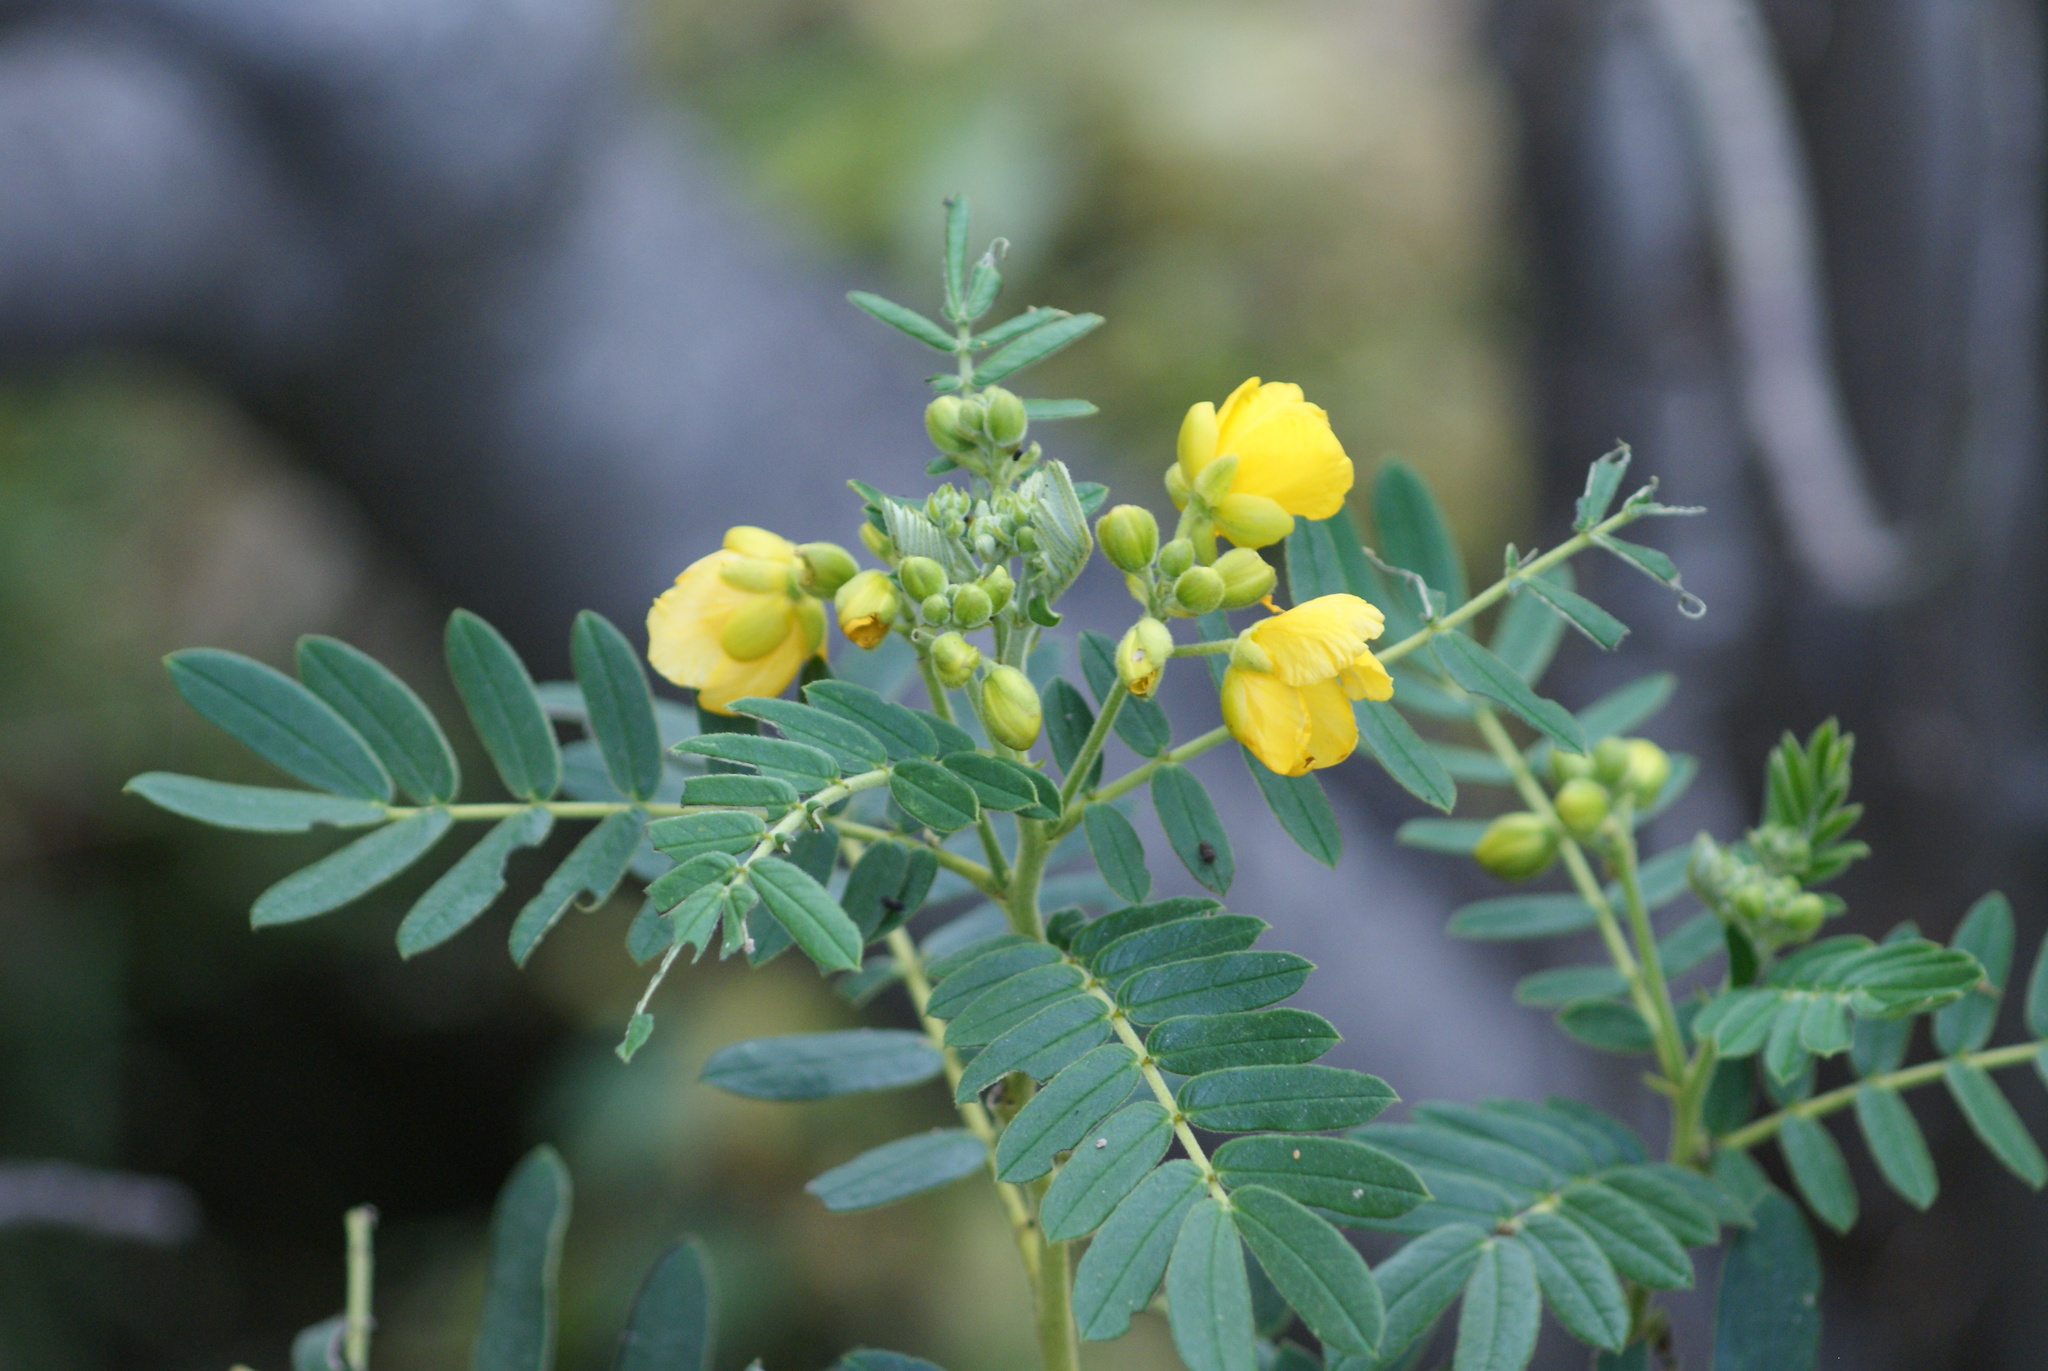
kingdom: Plantae
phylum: Tracheophyta
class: Magnoliopsida
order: Fabales
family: Fabaceae
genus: Senna
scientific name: Senna multiglandulosa
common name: Glandular senna
